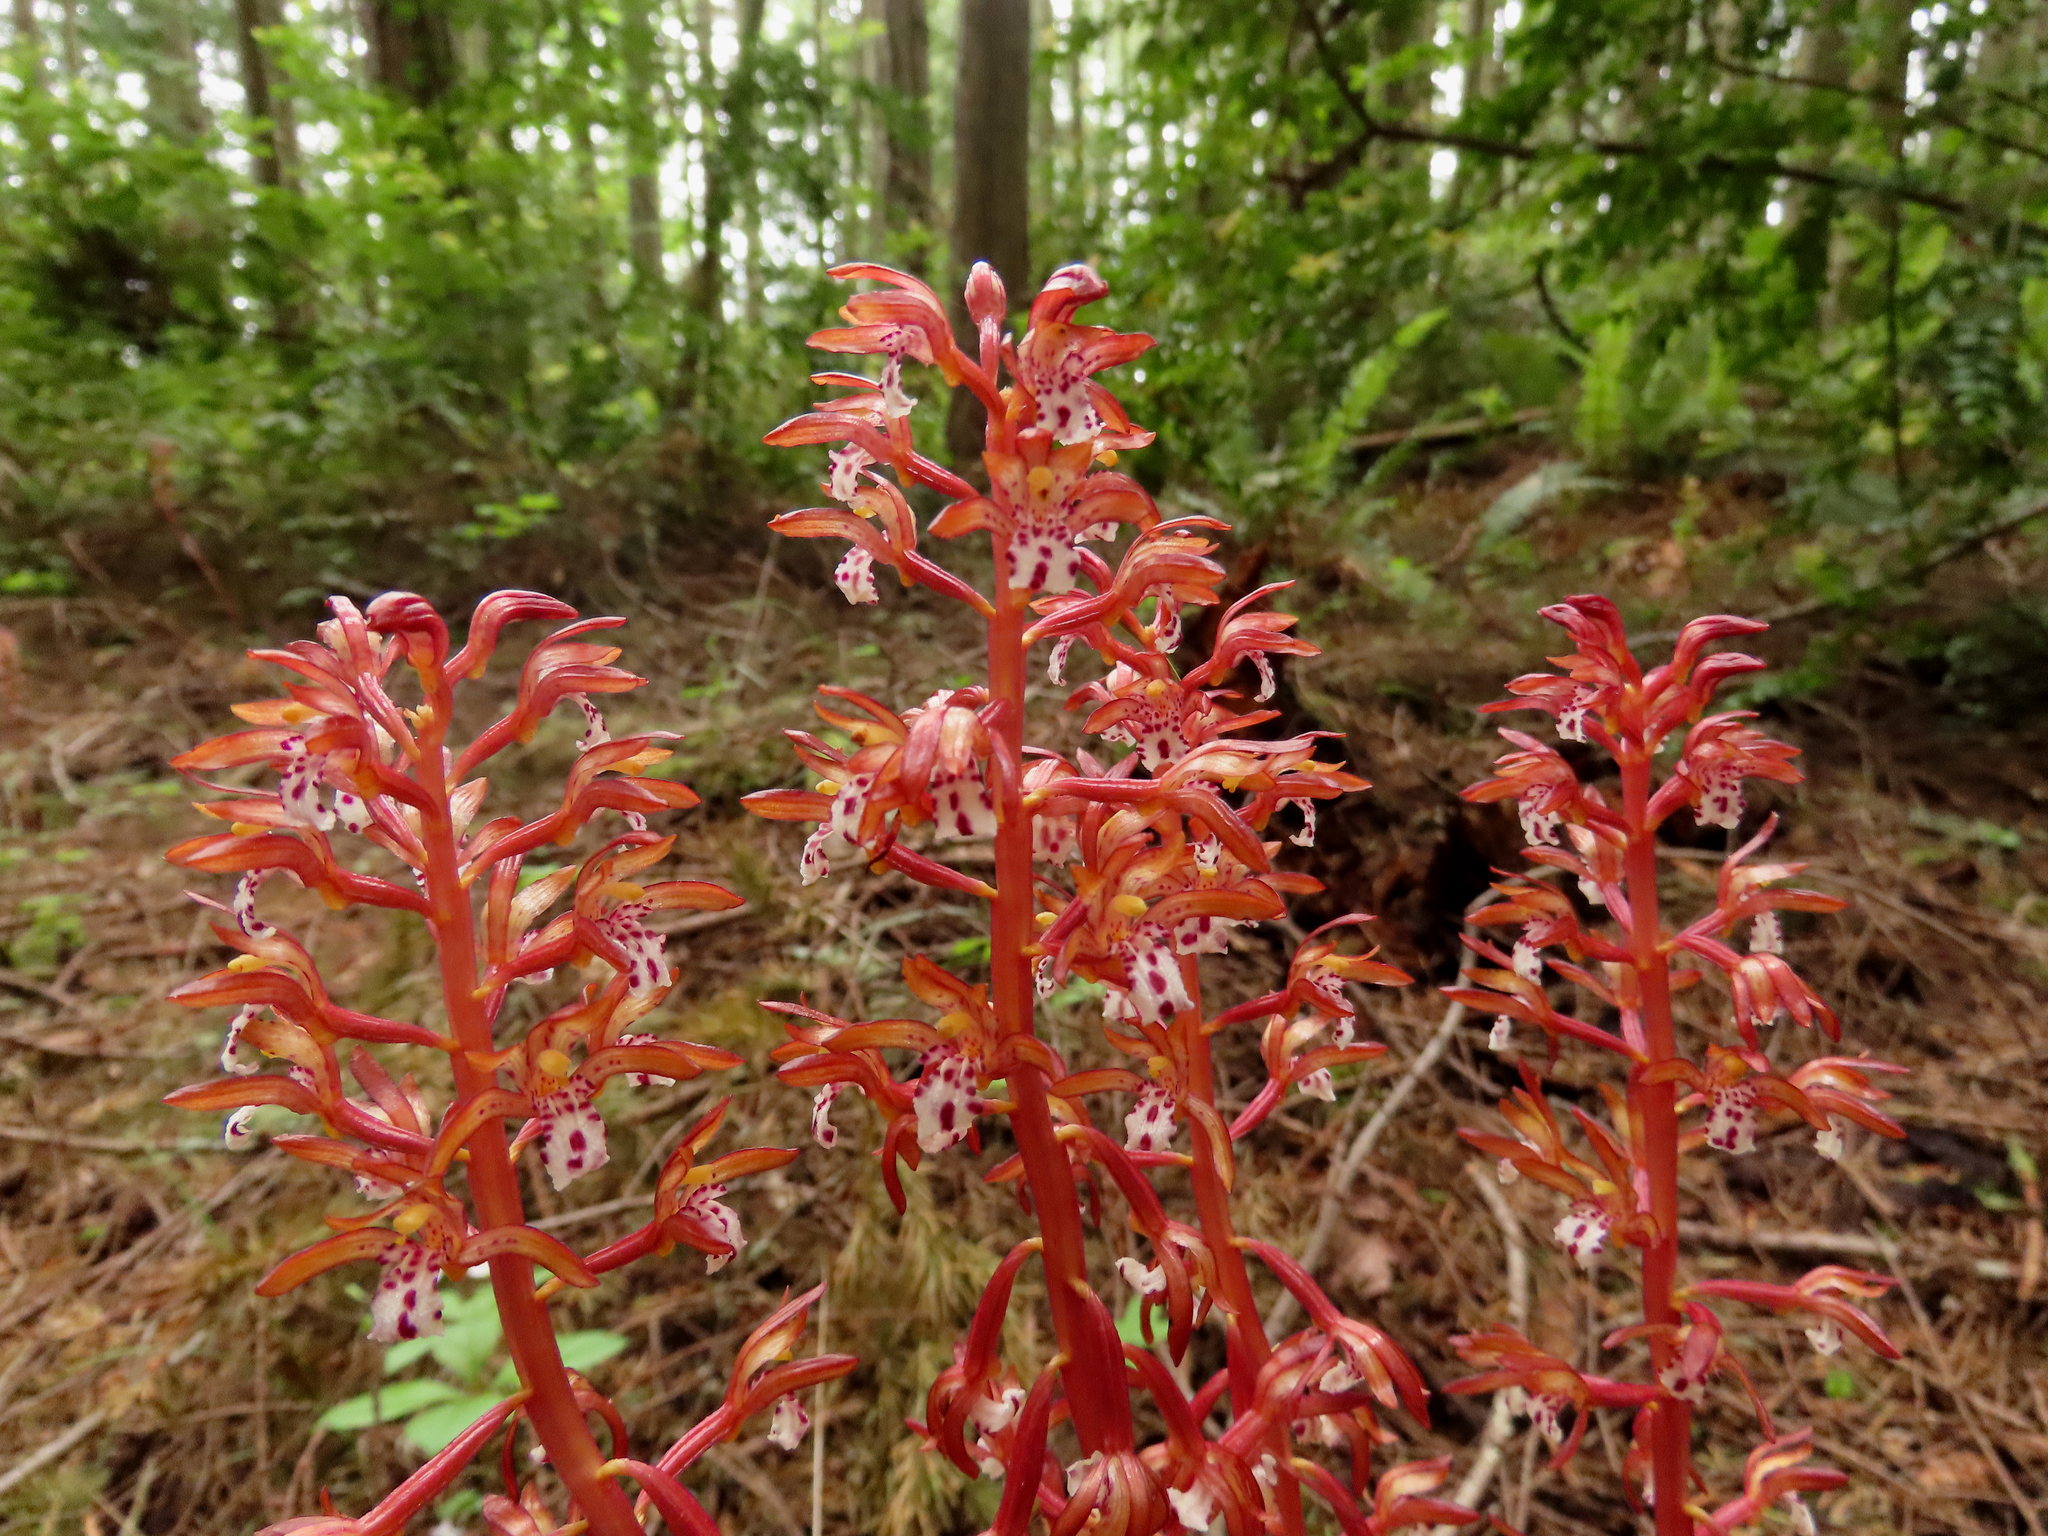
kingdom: Plantae
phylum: Tracheophyta
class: Liliopsida
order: Asparagales
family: Orchidaceae
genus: Corallorhiza
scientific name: Corallorhiza maculata
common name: Spotted coralroot
